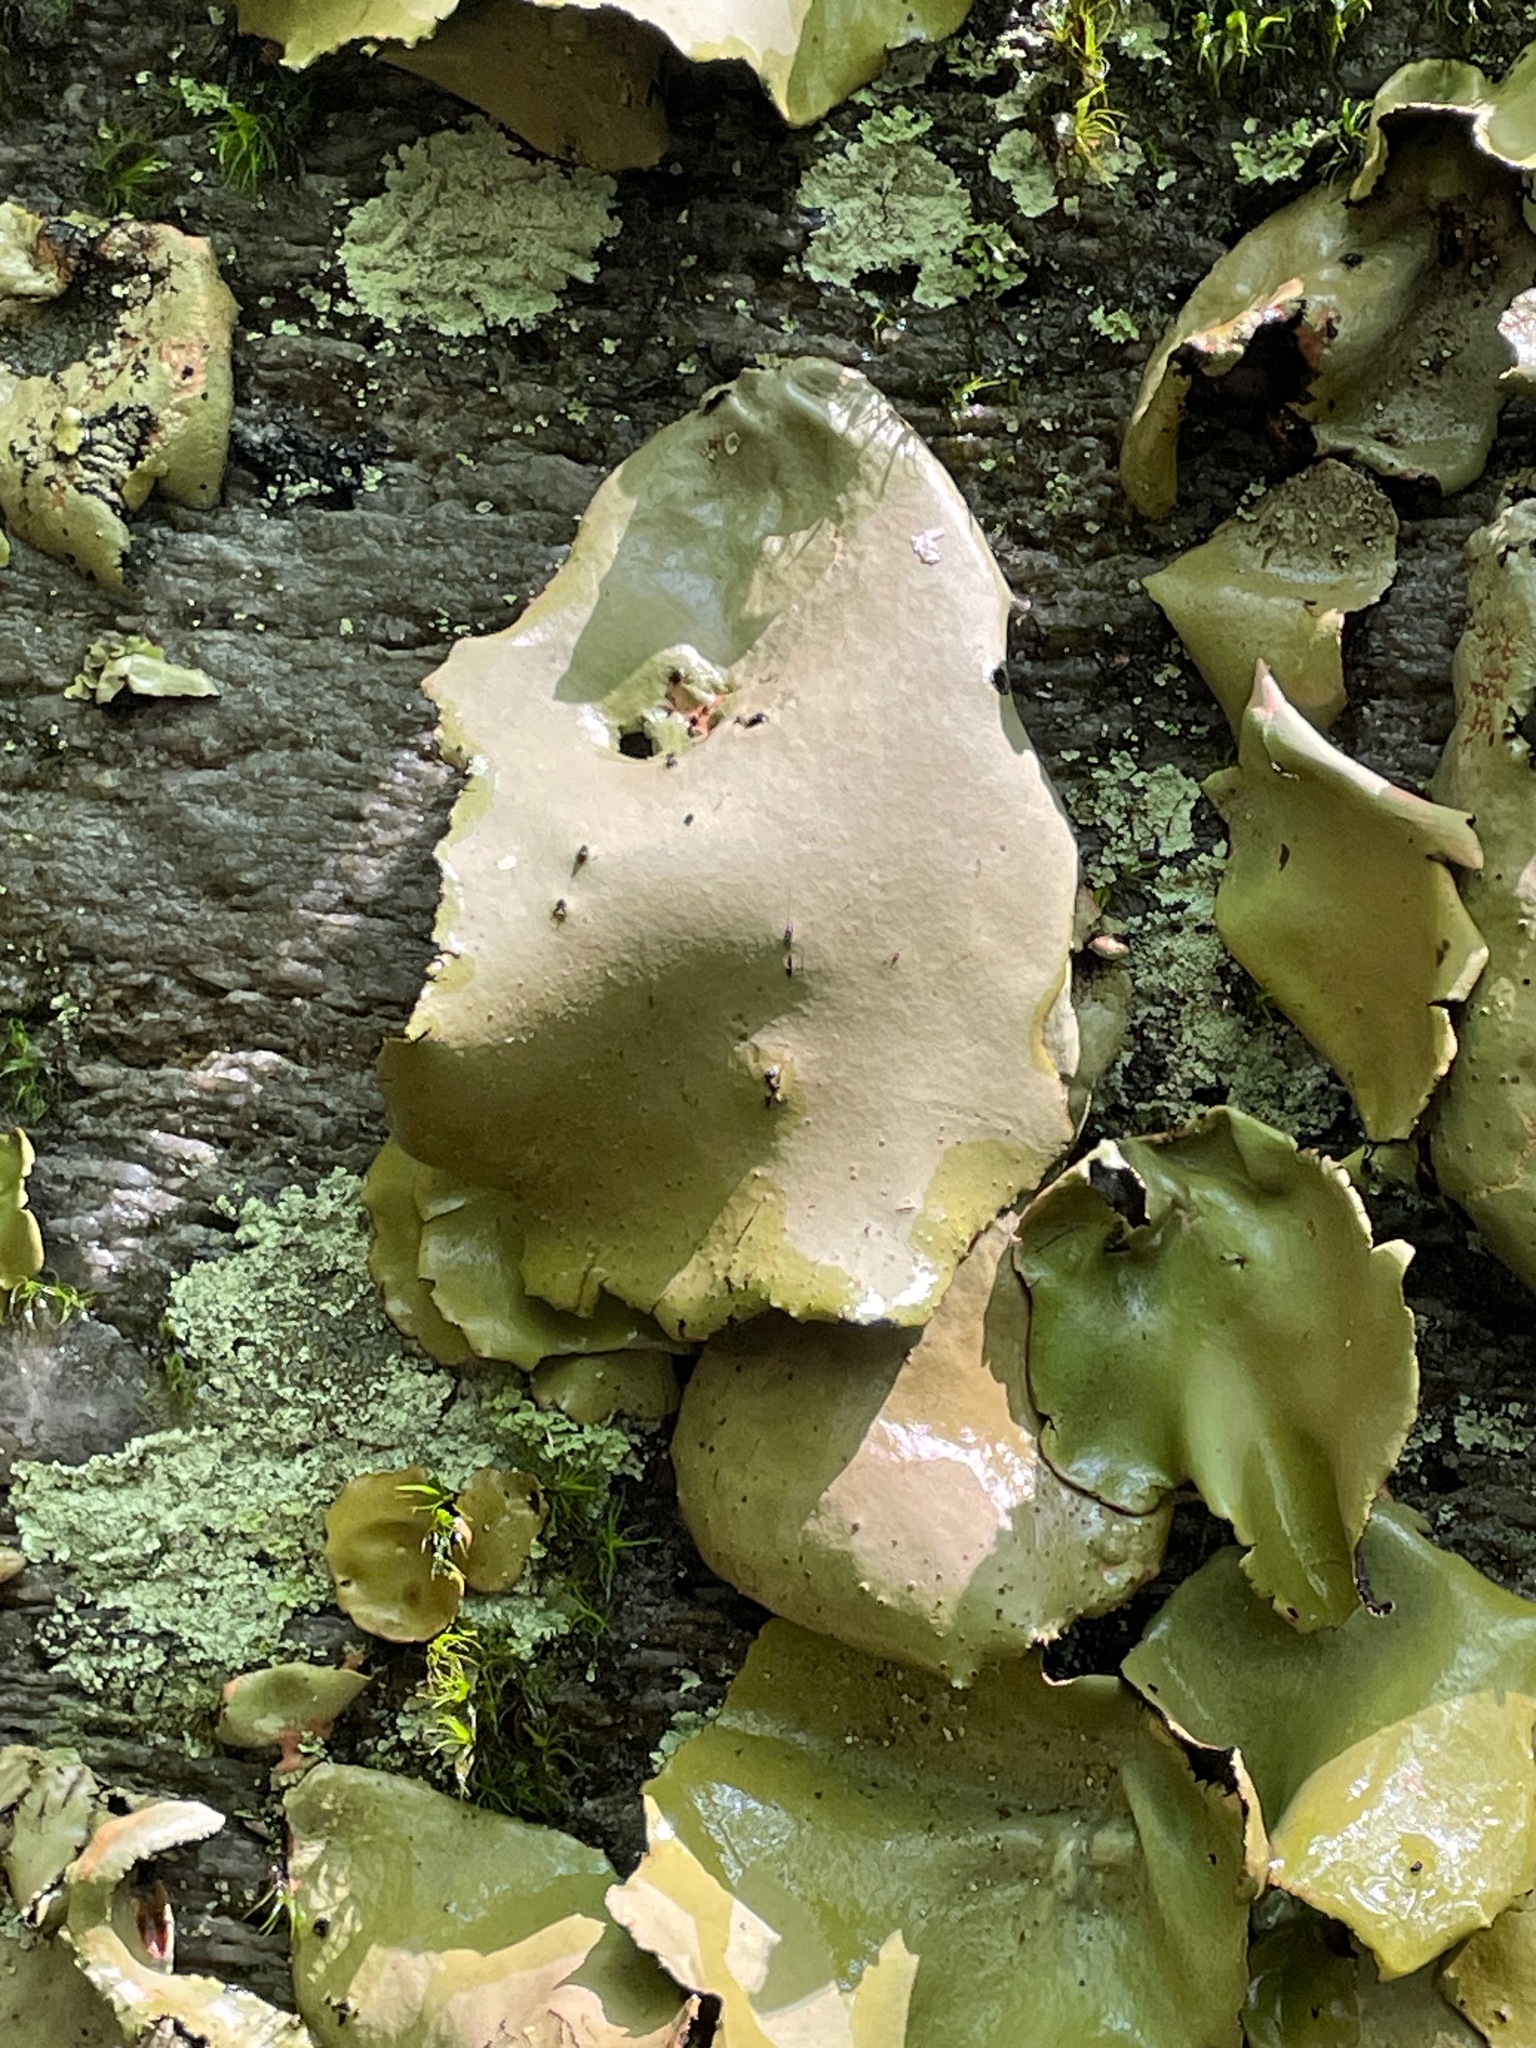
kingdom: Fungi
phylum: Ascomycota
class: Lecanoromycetes
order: Umbilicariales
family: Umbilicariaceae
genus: Umbilicaria
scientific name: Umbilicaria mammulata
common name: Smooth rock tripe
